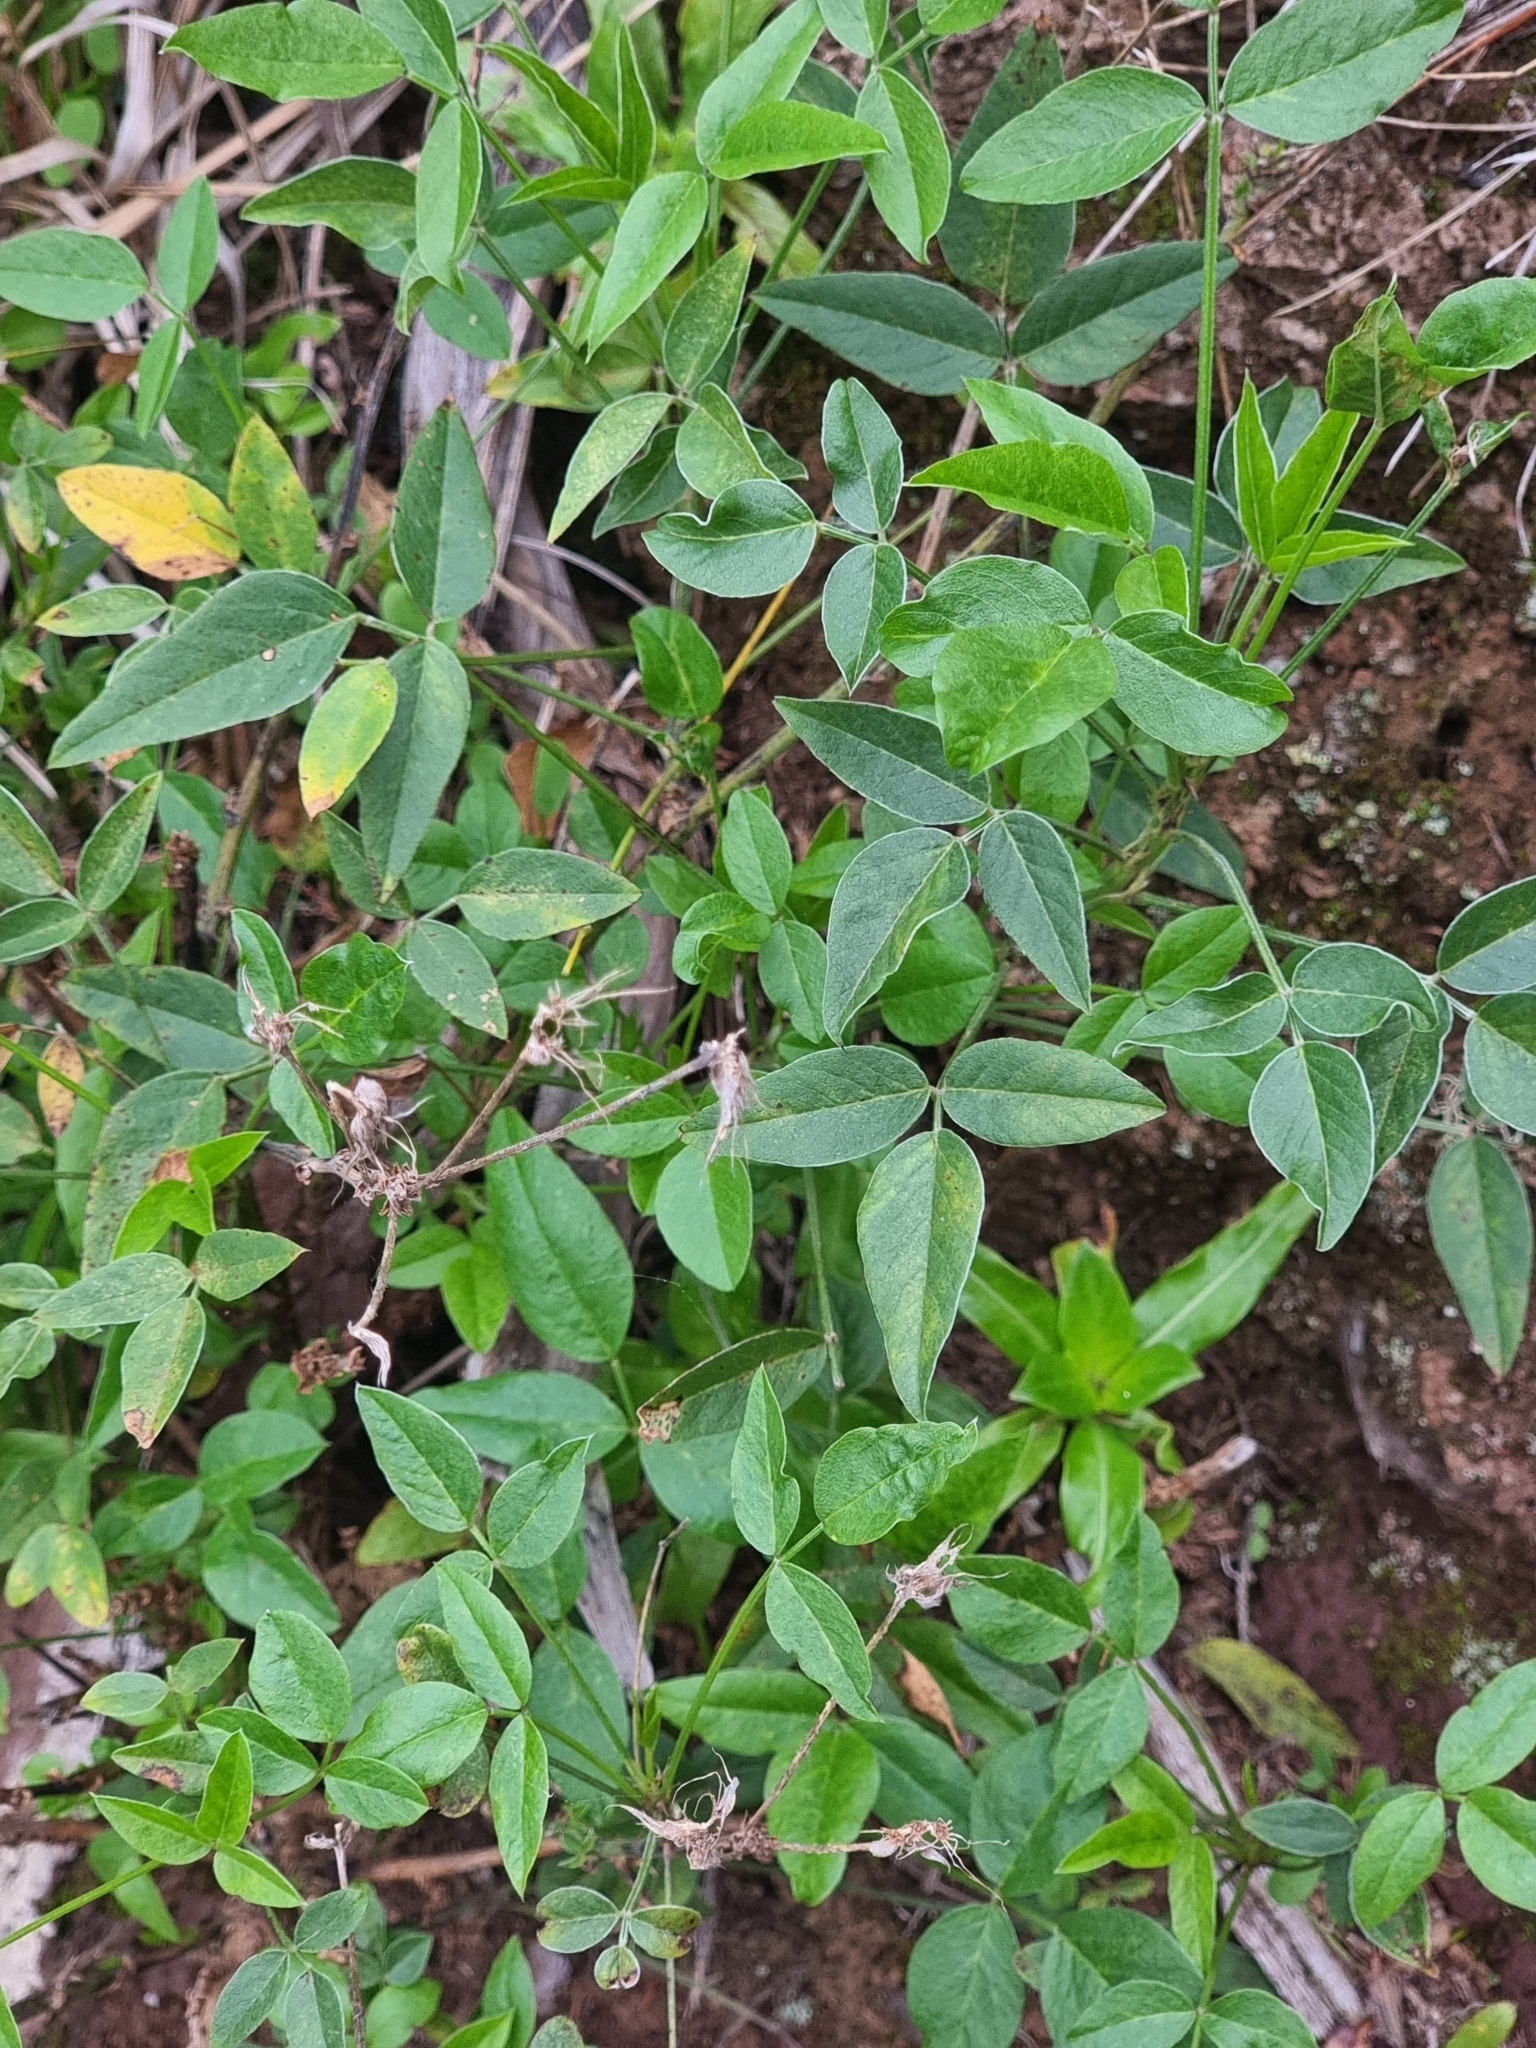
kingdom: Plantae
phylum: Tracheophyta
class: Magnoliopsida
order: Fabales
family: Fabaceae
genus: Bituminaria
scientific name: Bituminaria bituminosa
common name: Arabian pea
